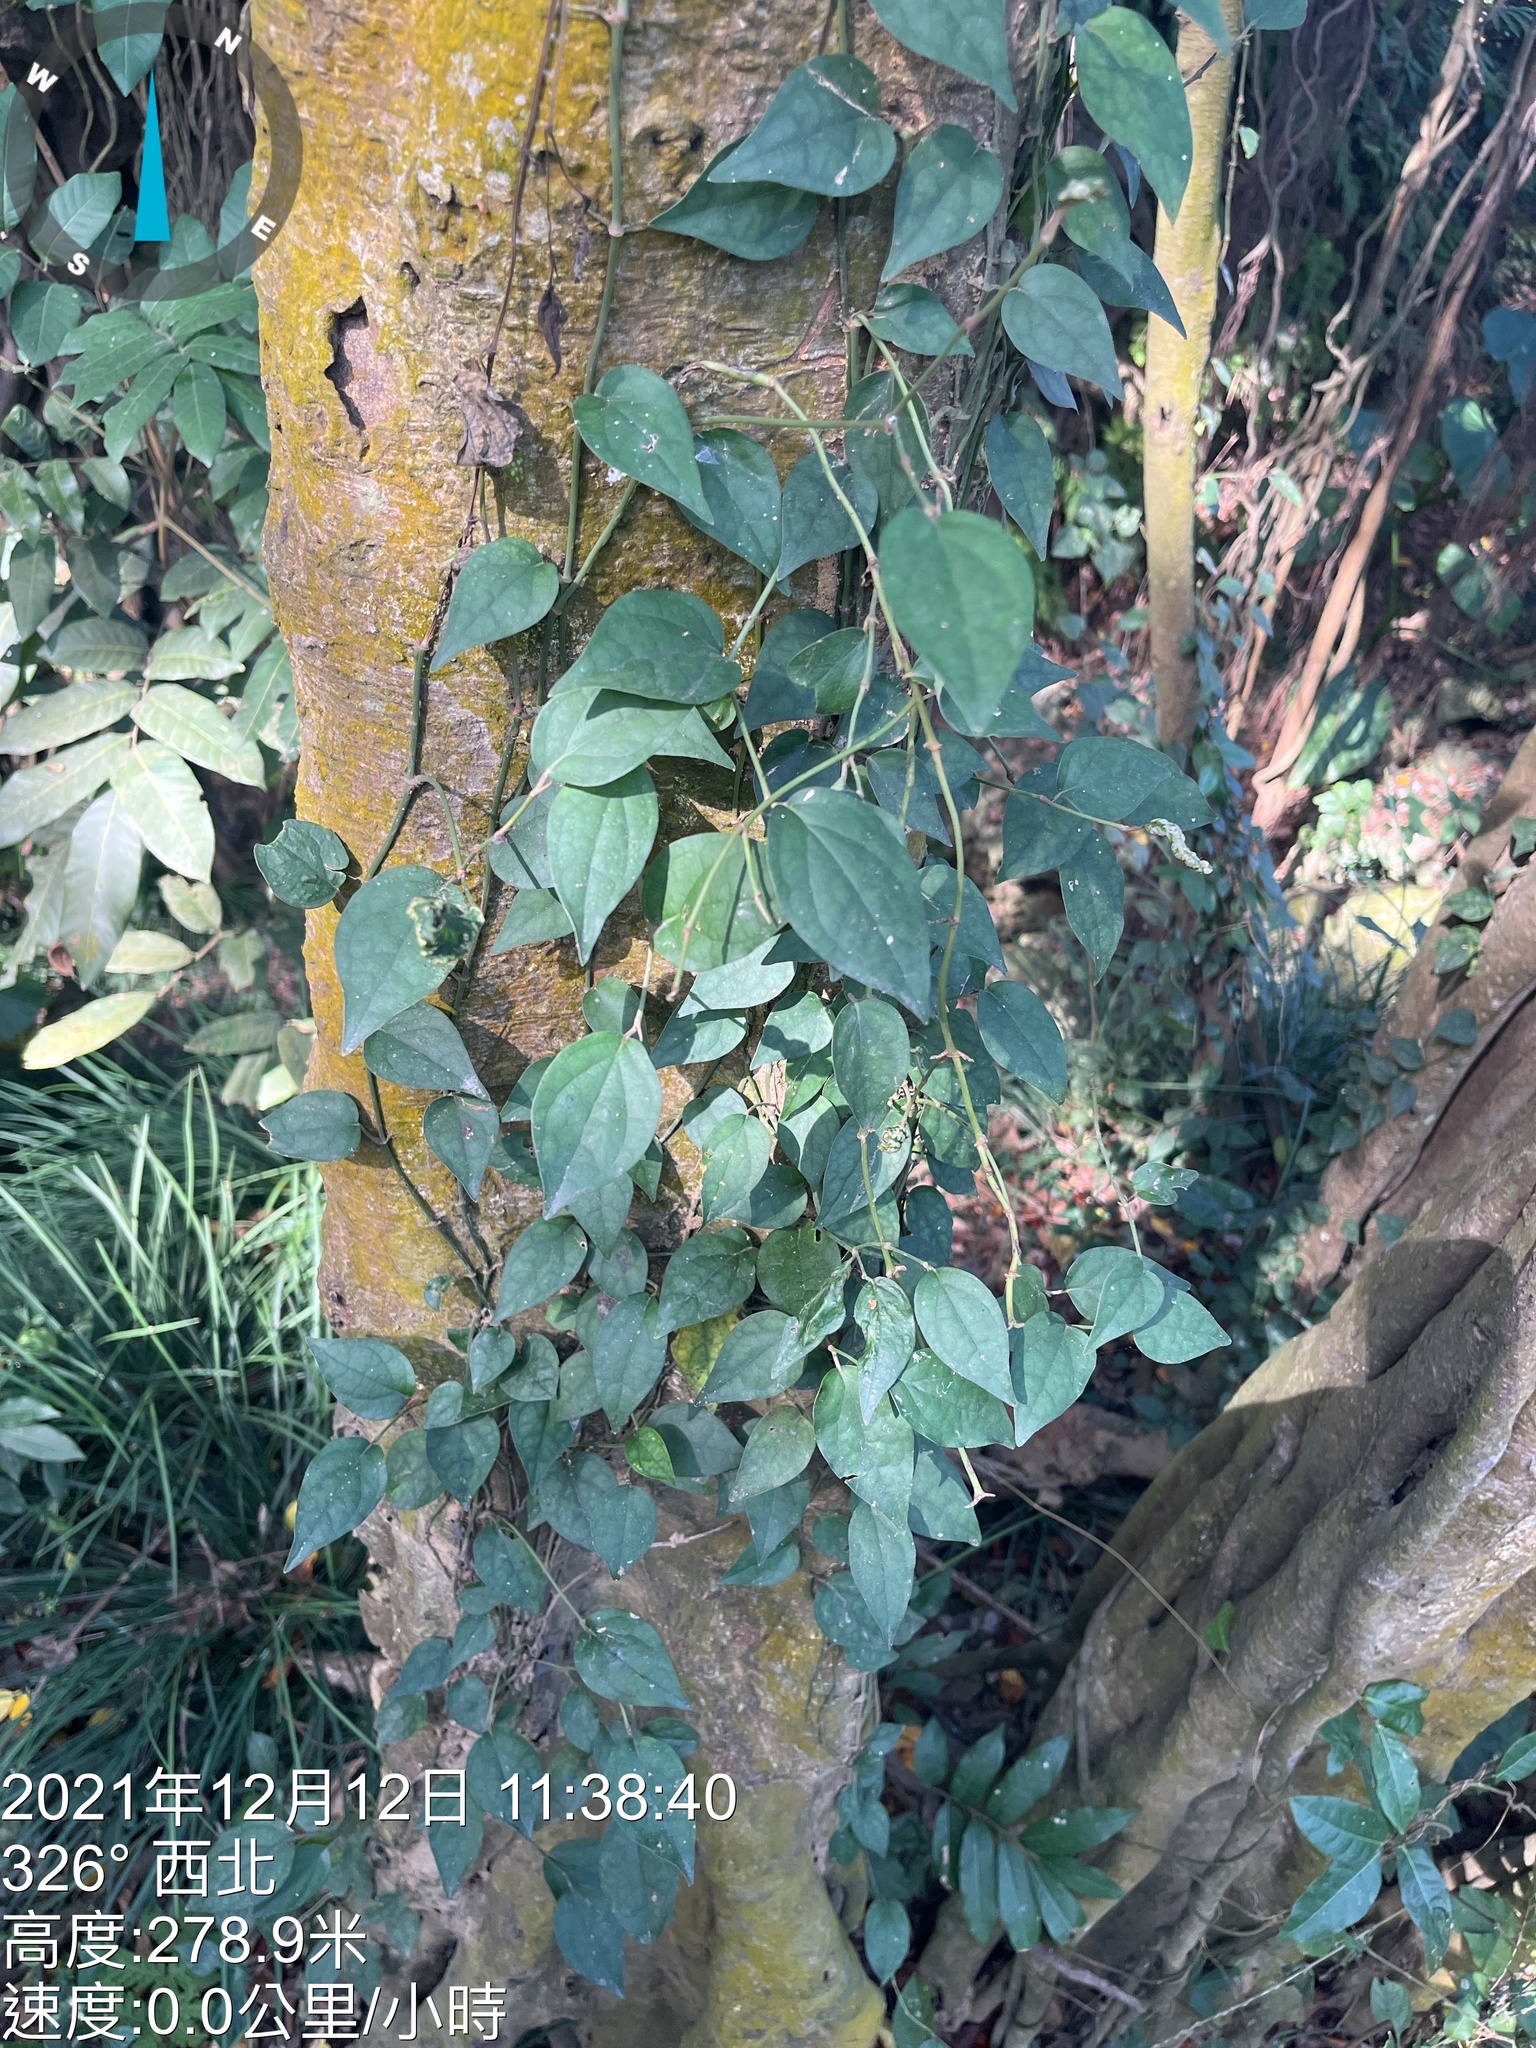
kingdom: Plantae
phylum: Tracheophyta
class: Magnoliopsida
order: Piperales
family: Piperaceae
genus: Piper
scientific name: Piper kadsura
